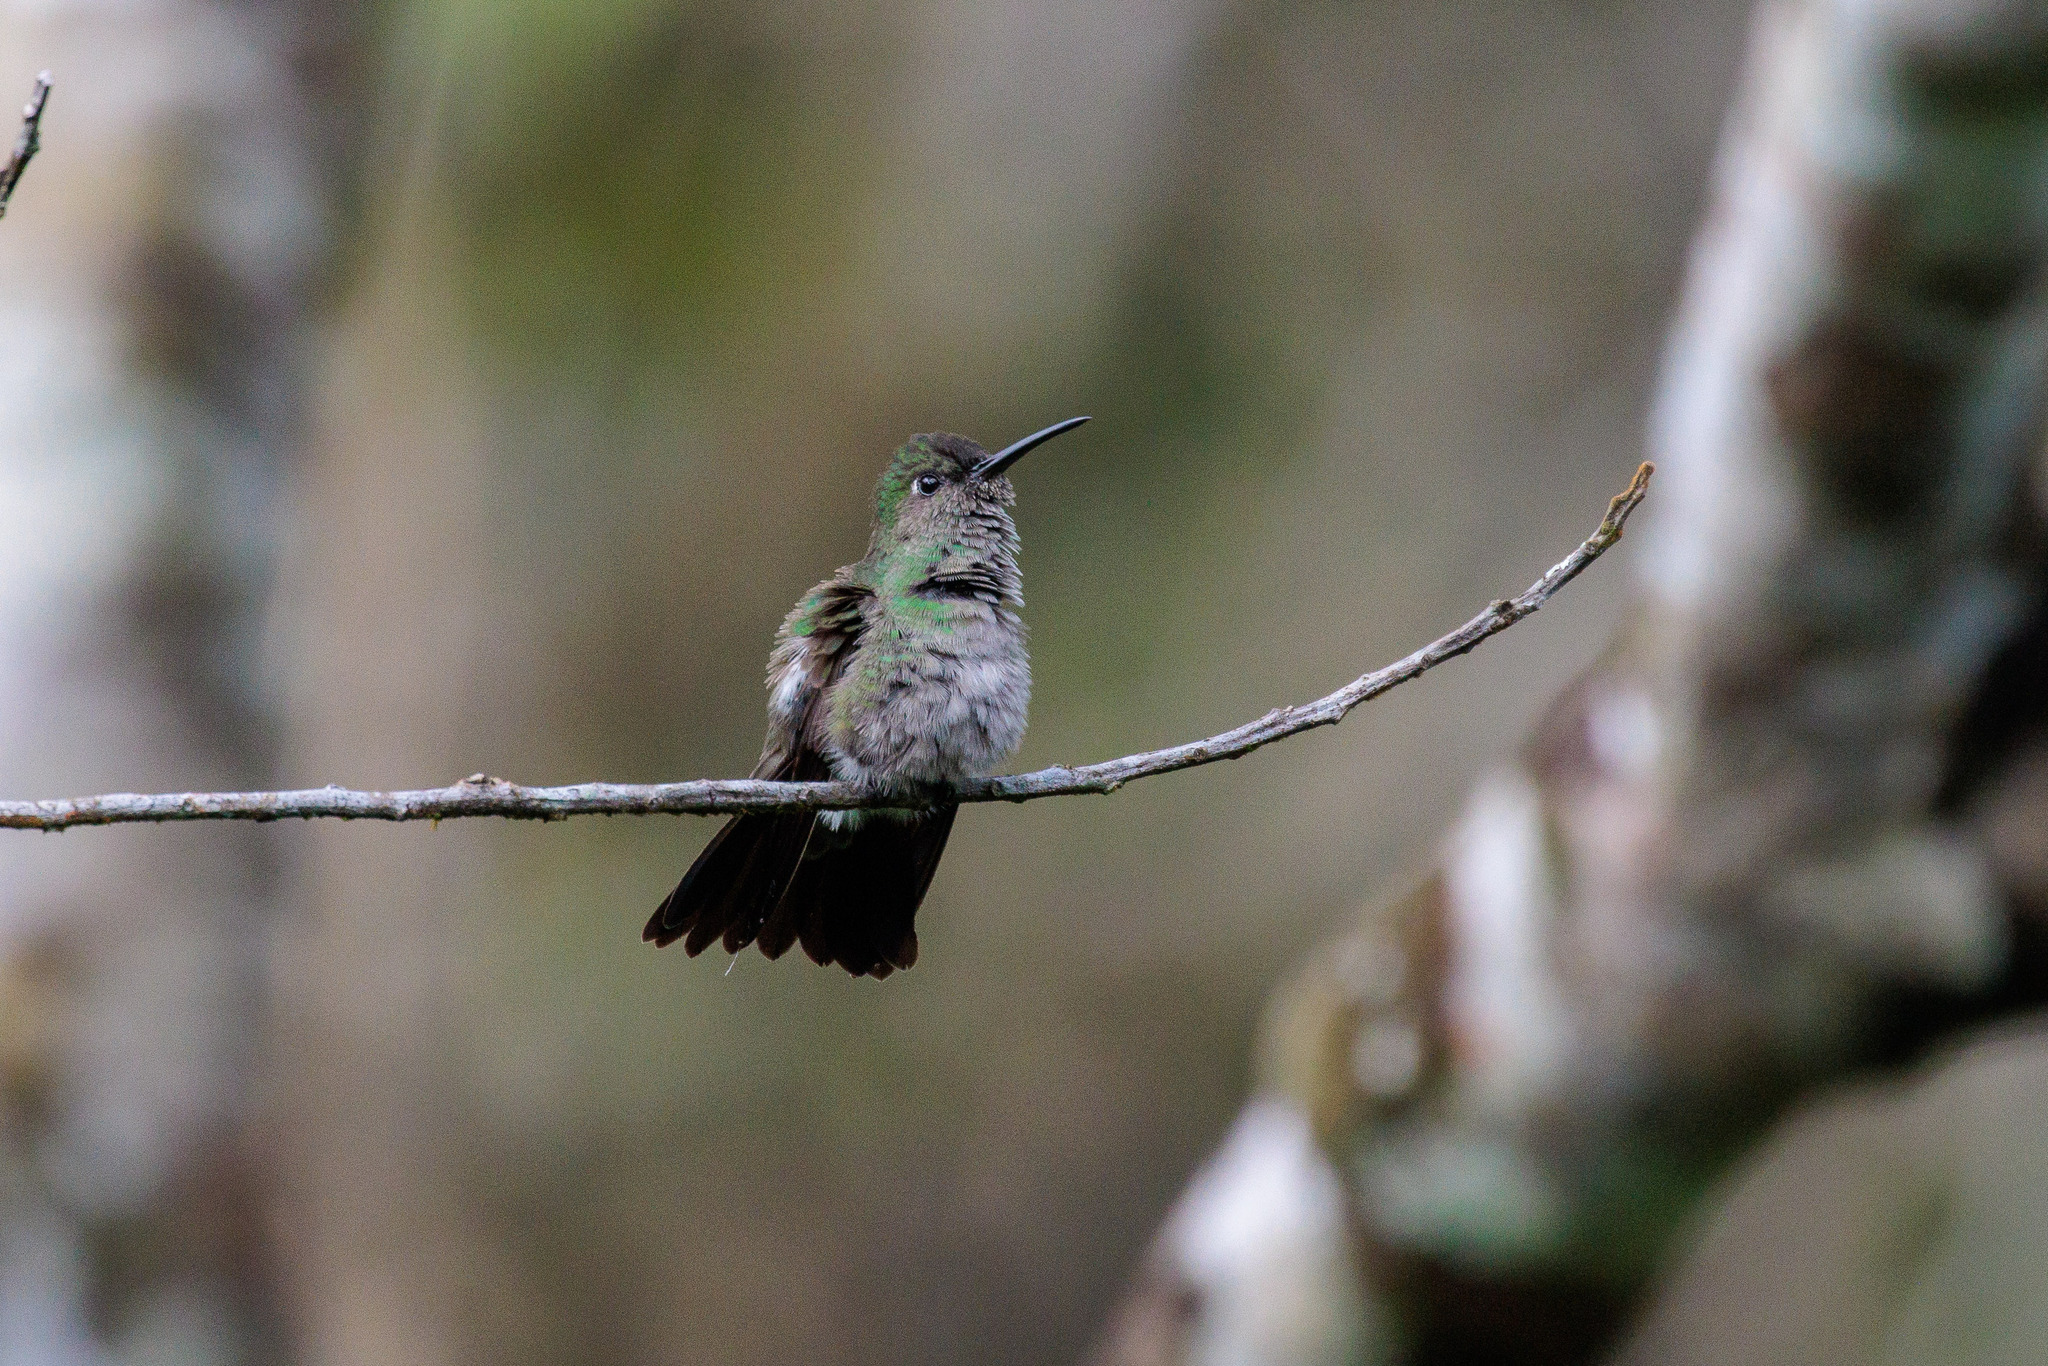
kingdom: Animalia
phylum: Chordata
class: Aves
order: Apodiformes
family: Trochilidae
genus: Eupetomena
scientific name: Eupetomena cirrochloris
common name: Sombre hummingbird
